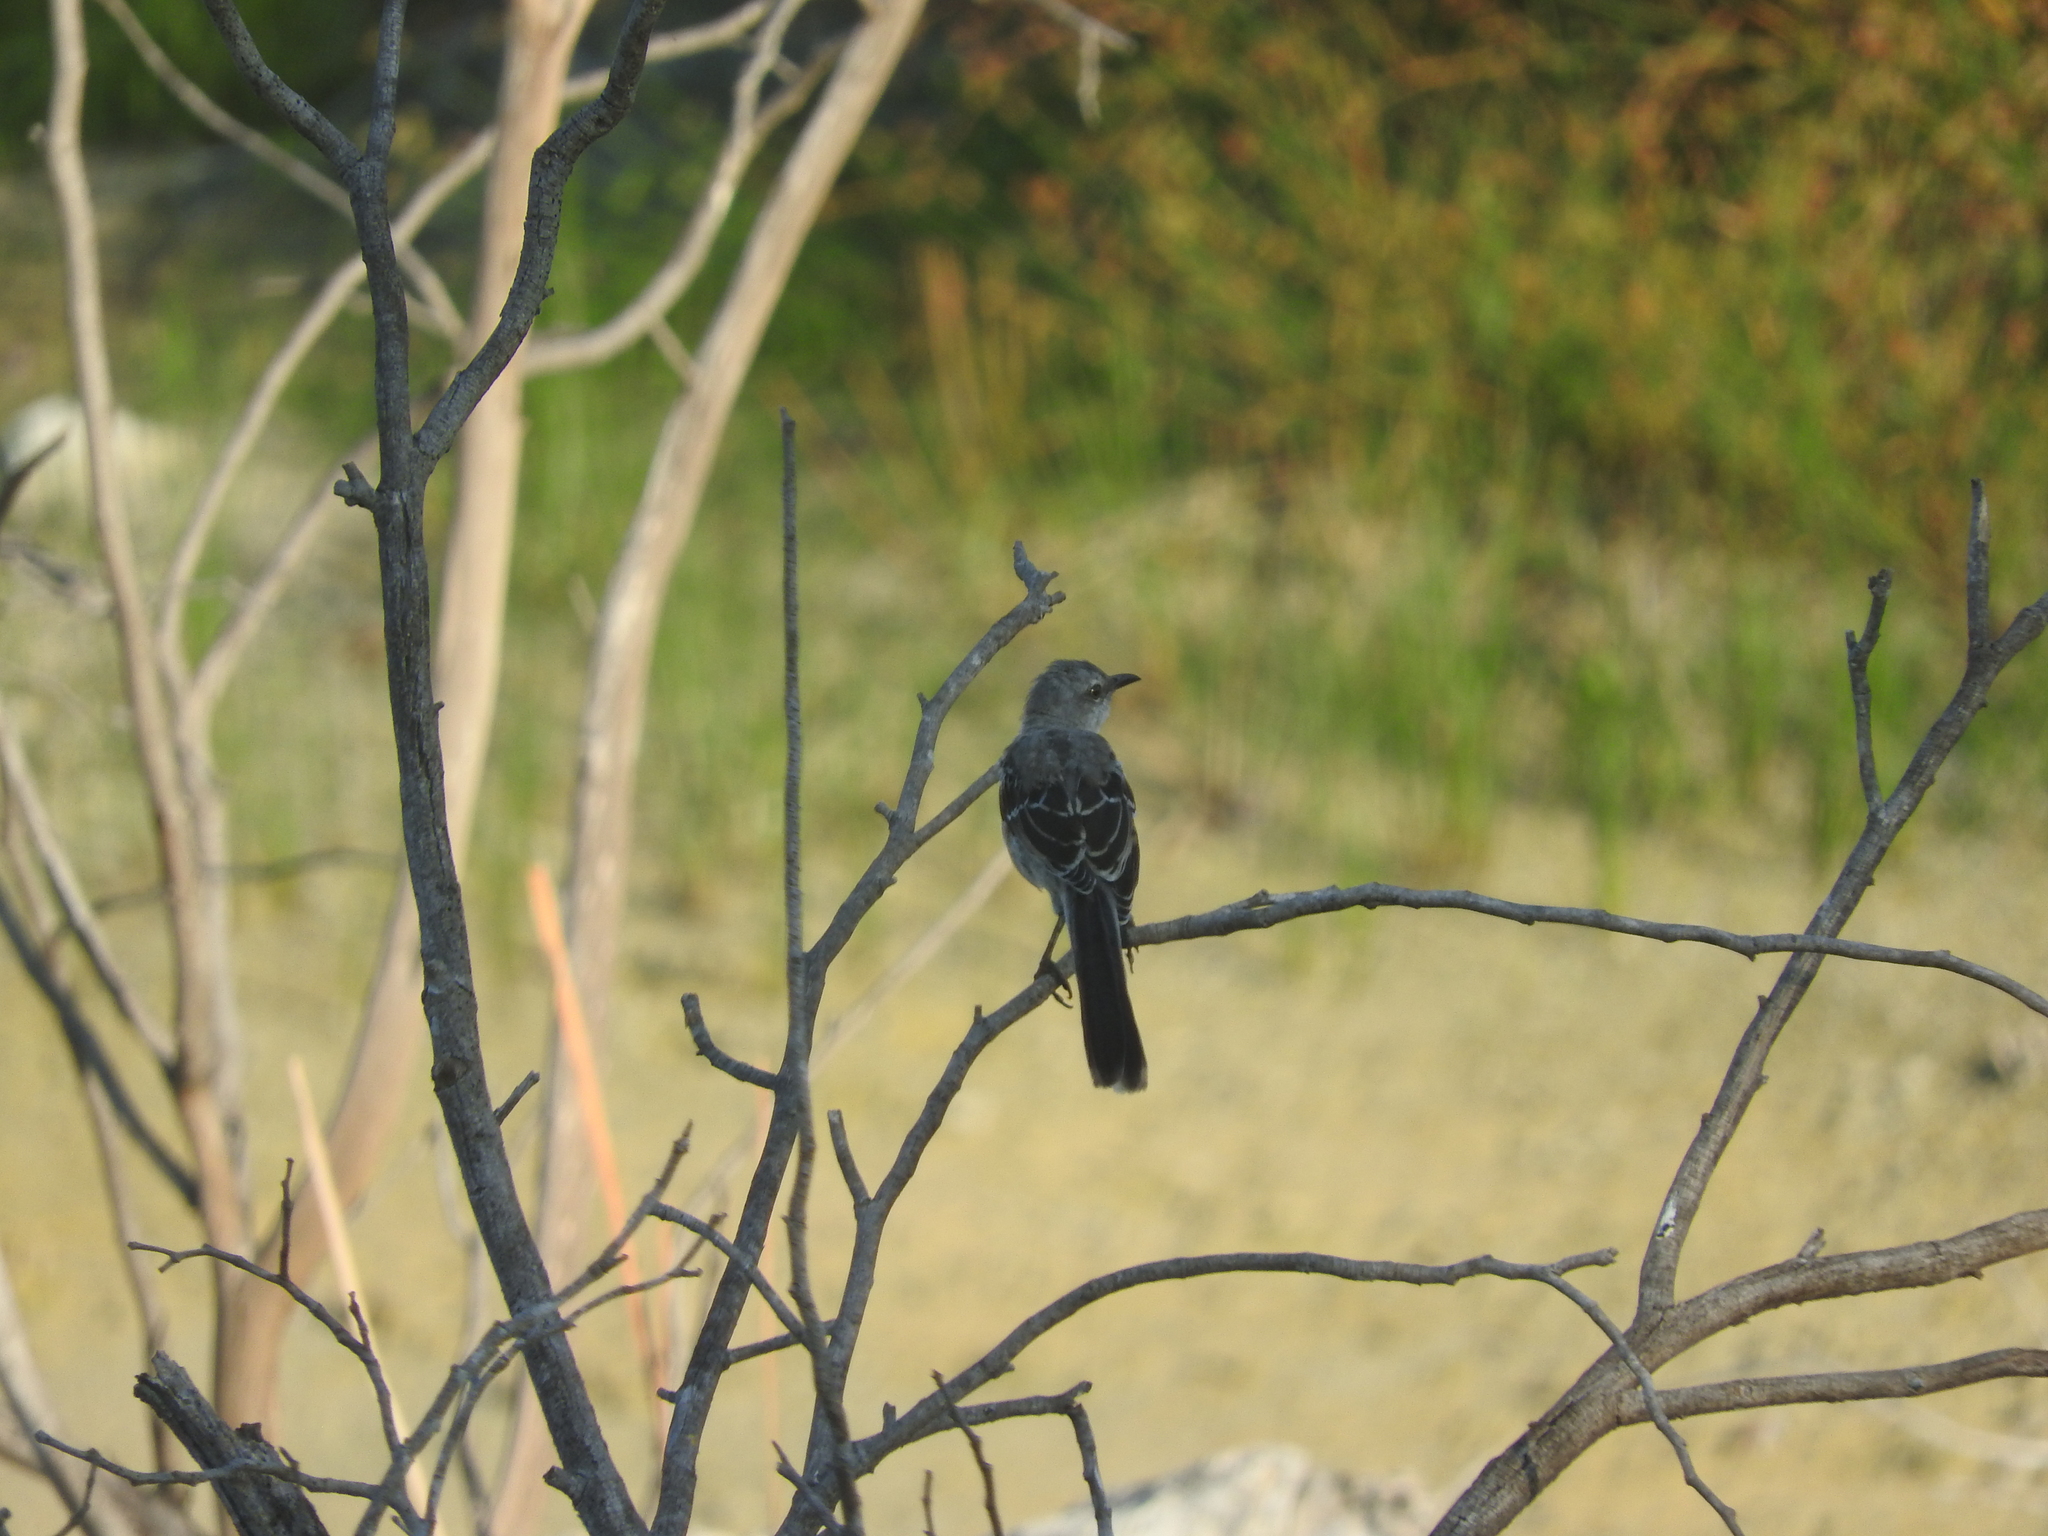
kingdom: Animalia
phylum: Chordata
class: Aves
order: Passeriformes
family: Mimidae
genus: Mimus
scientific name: Mimus gilvus
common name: Tropical mockingbird
